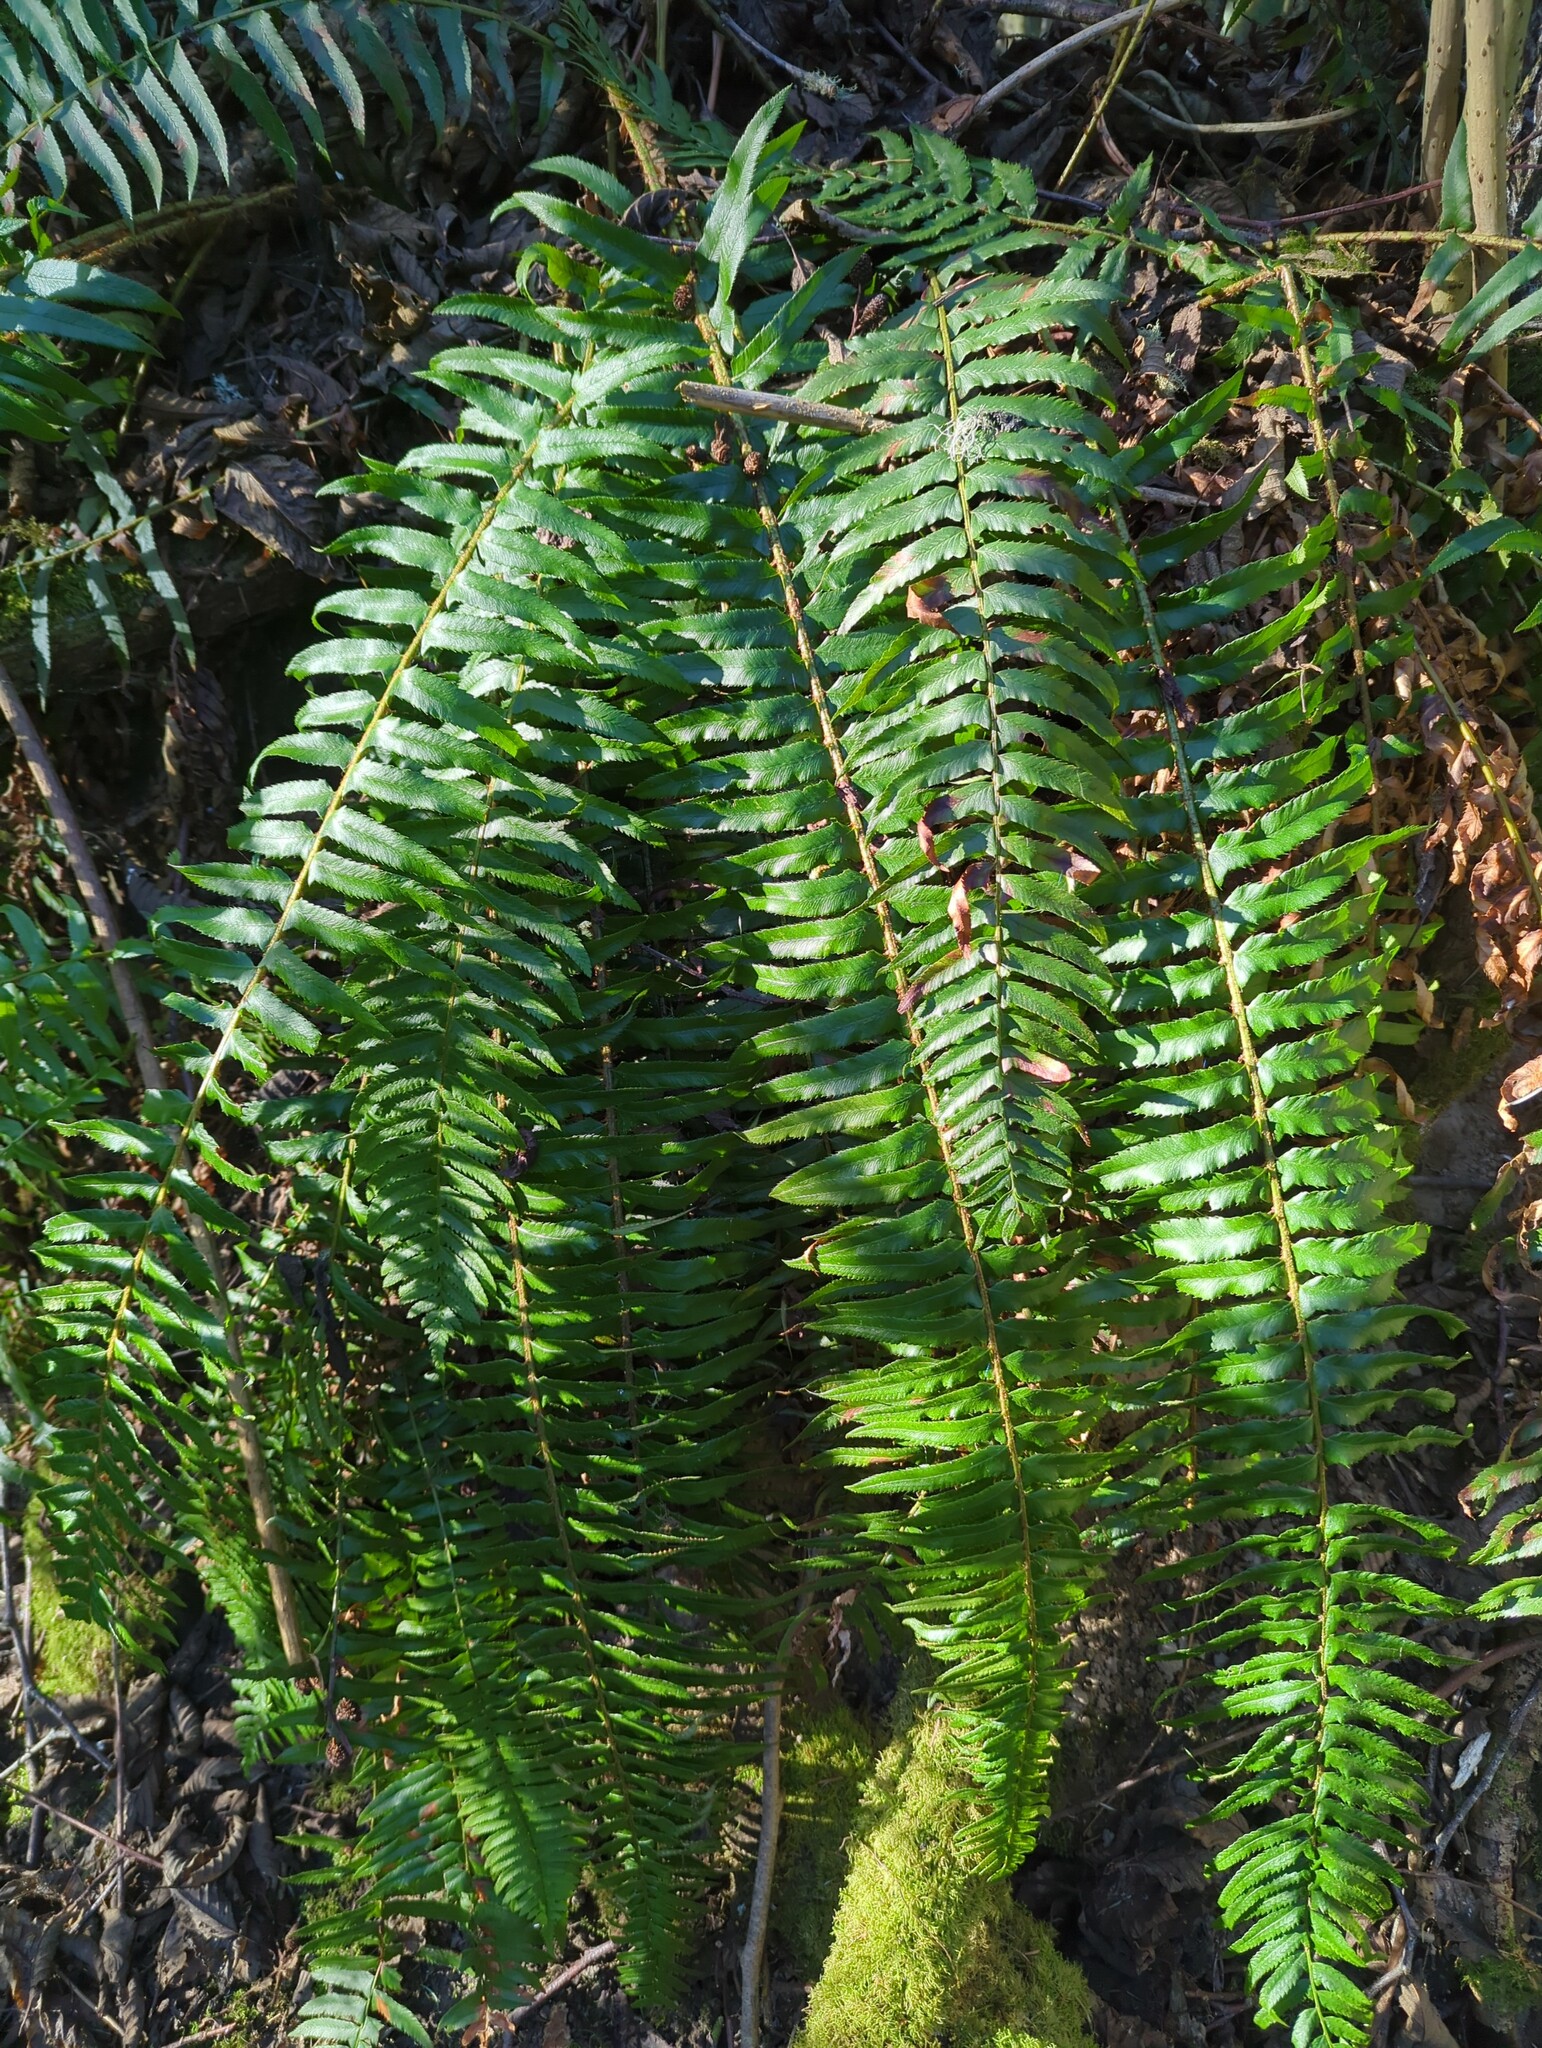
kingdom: Plantae
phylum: Tracheophyta
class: Polypodiopsida
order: Polypodiales
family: Dryopteridaceae
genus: Polystichum
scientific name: Polystichum munitum
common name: Western sword-fern
